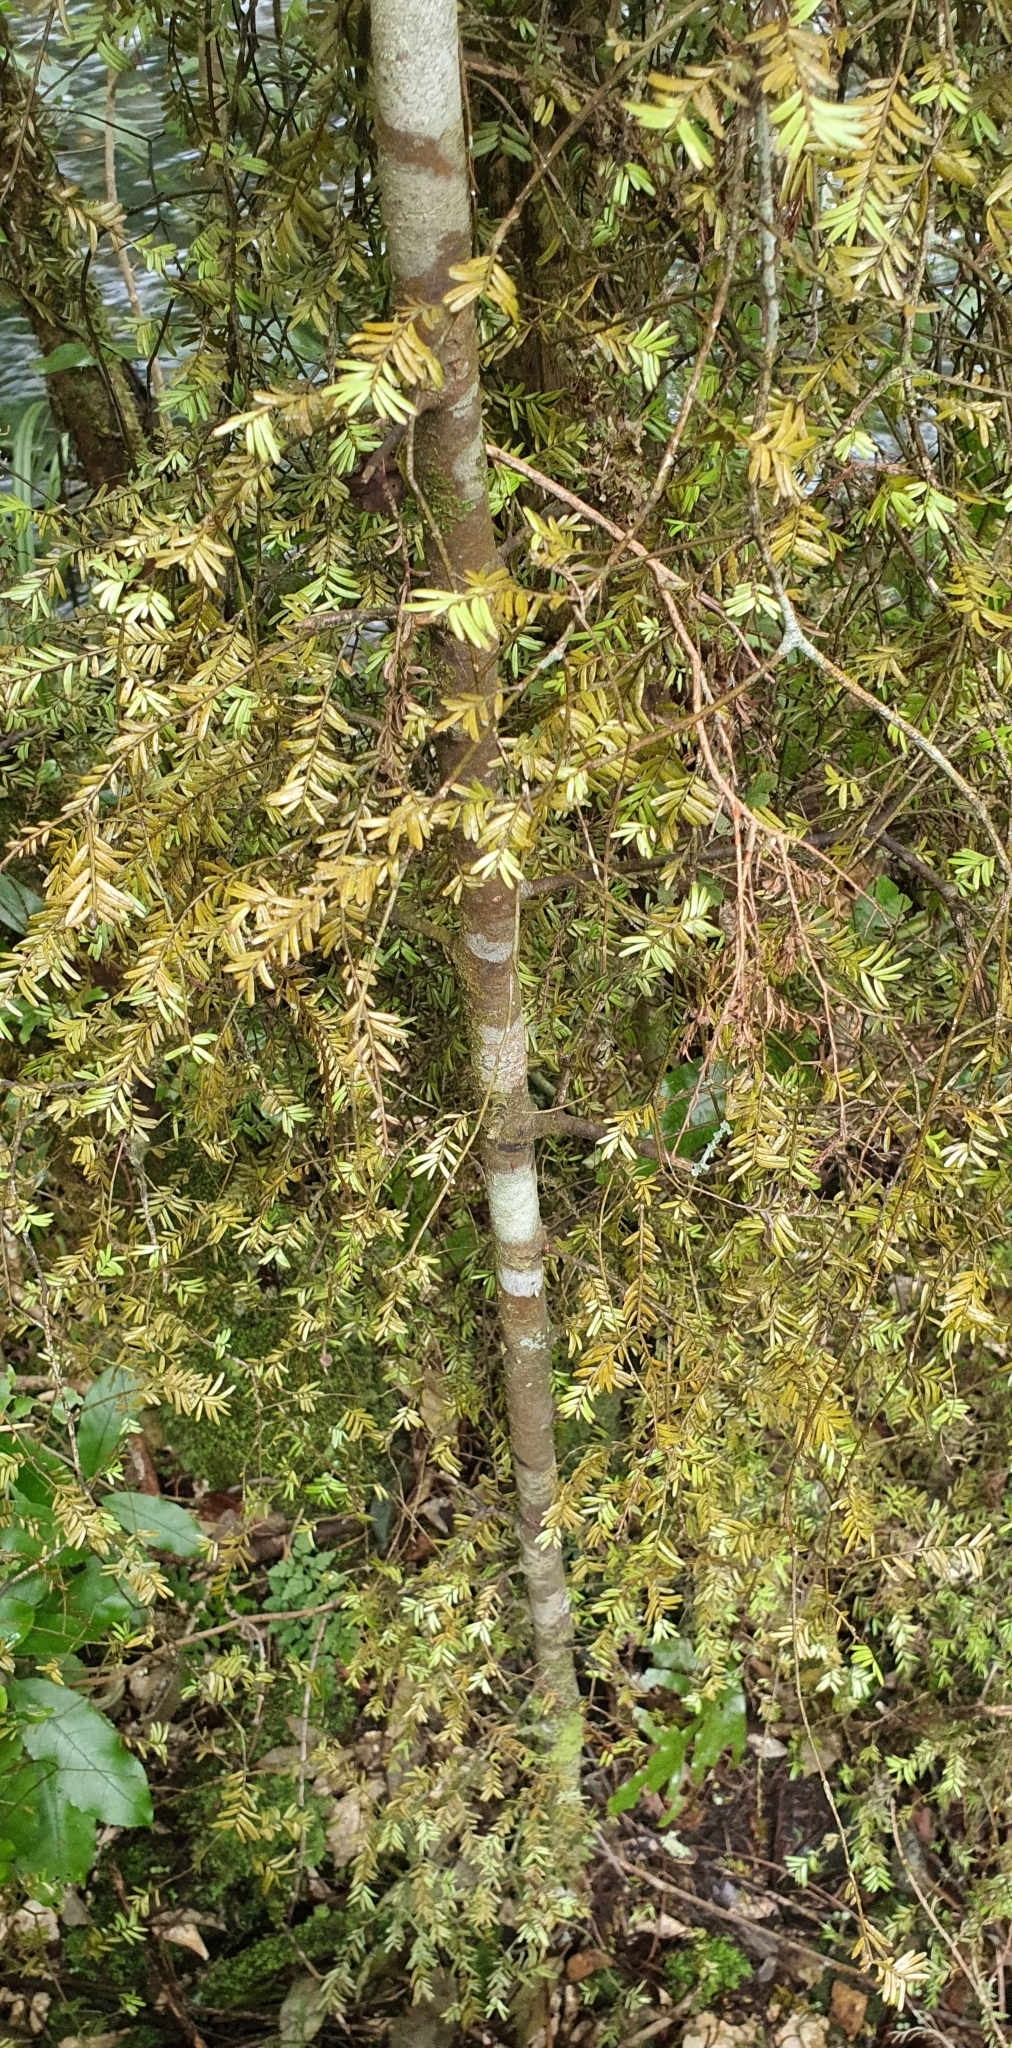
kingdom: Plantae
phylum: Tracheophyta
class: Pinopsida
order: Pinales
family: Podocarpaceae
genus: Prumnopitys
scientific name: Prumnopitys taxifolia
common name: Matai
